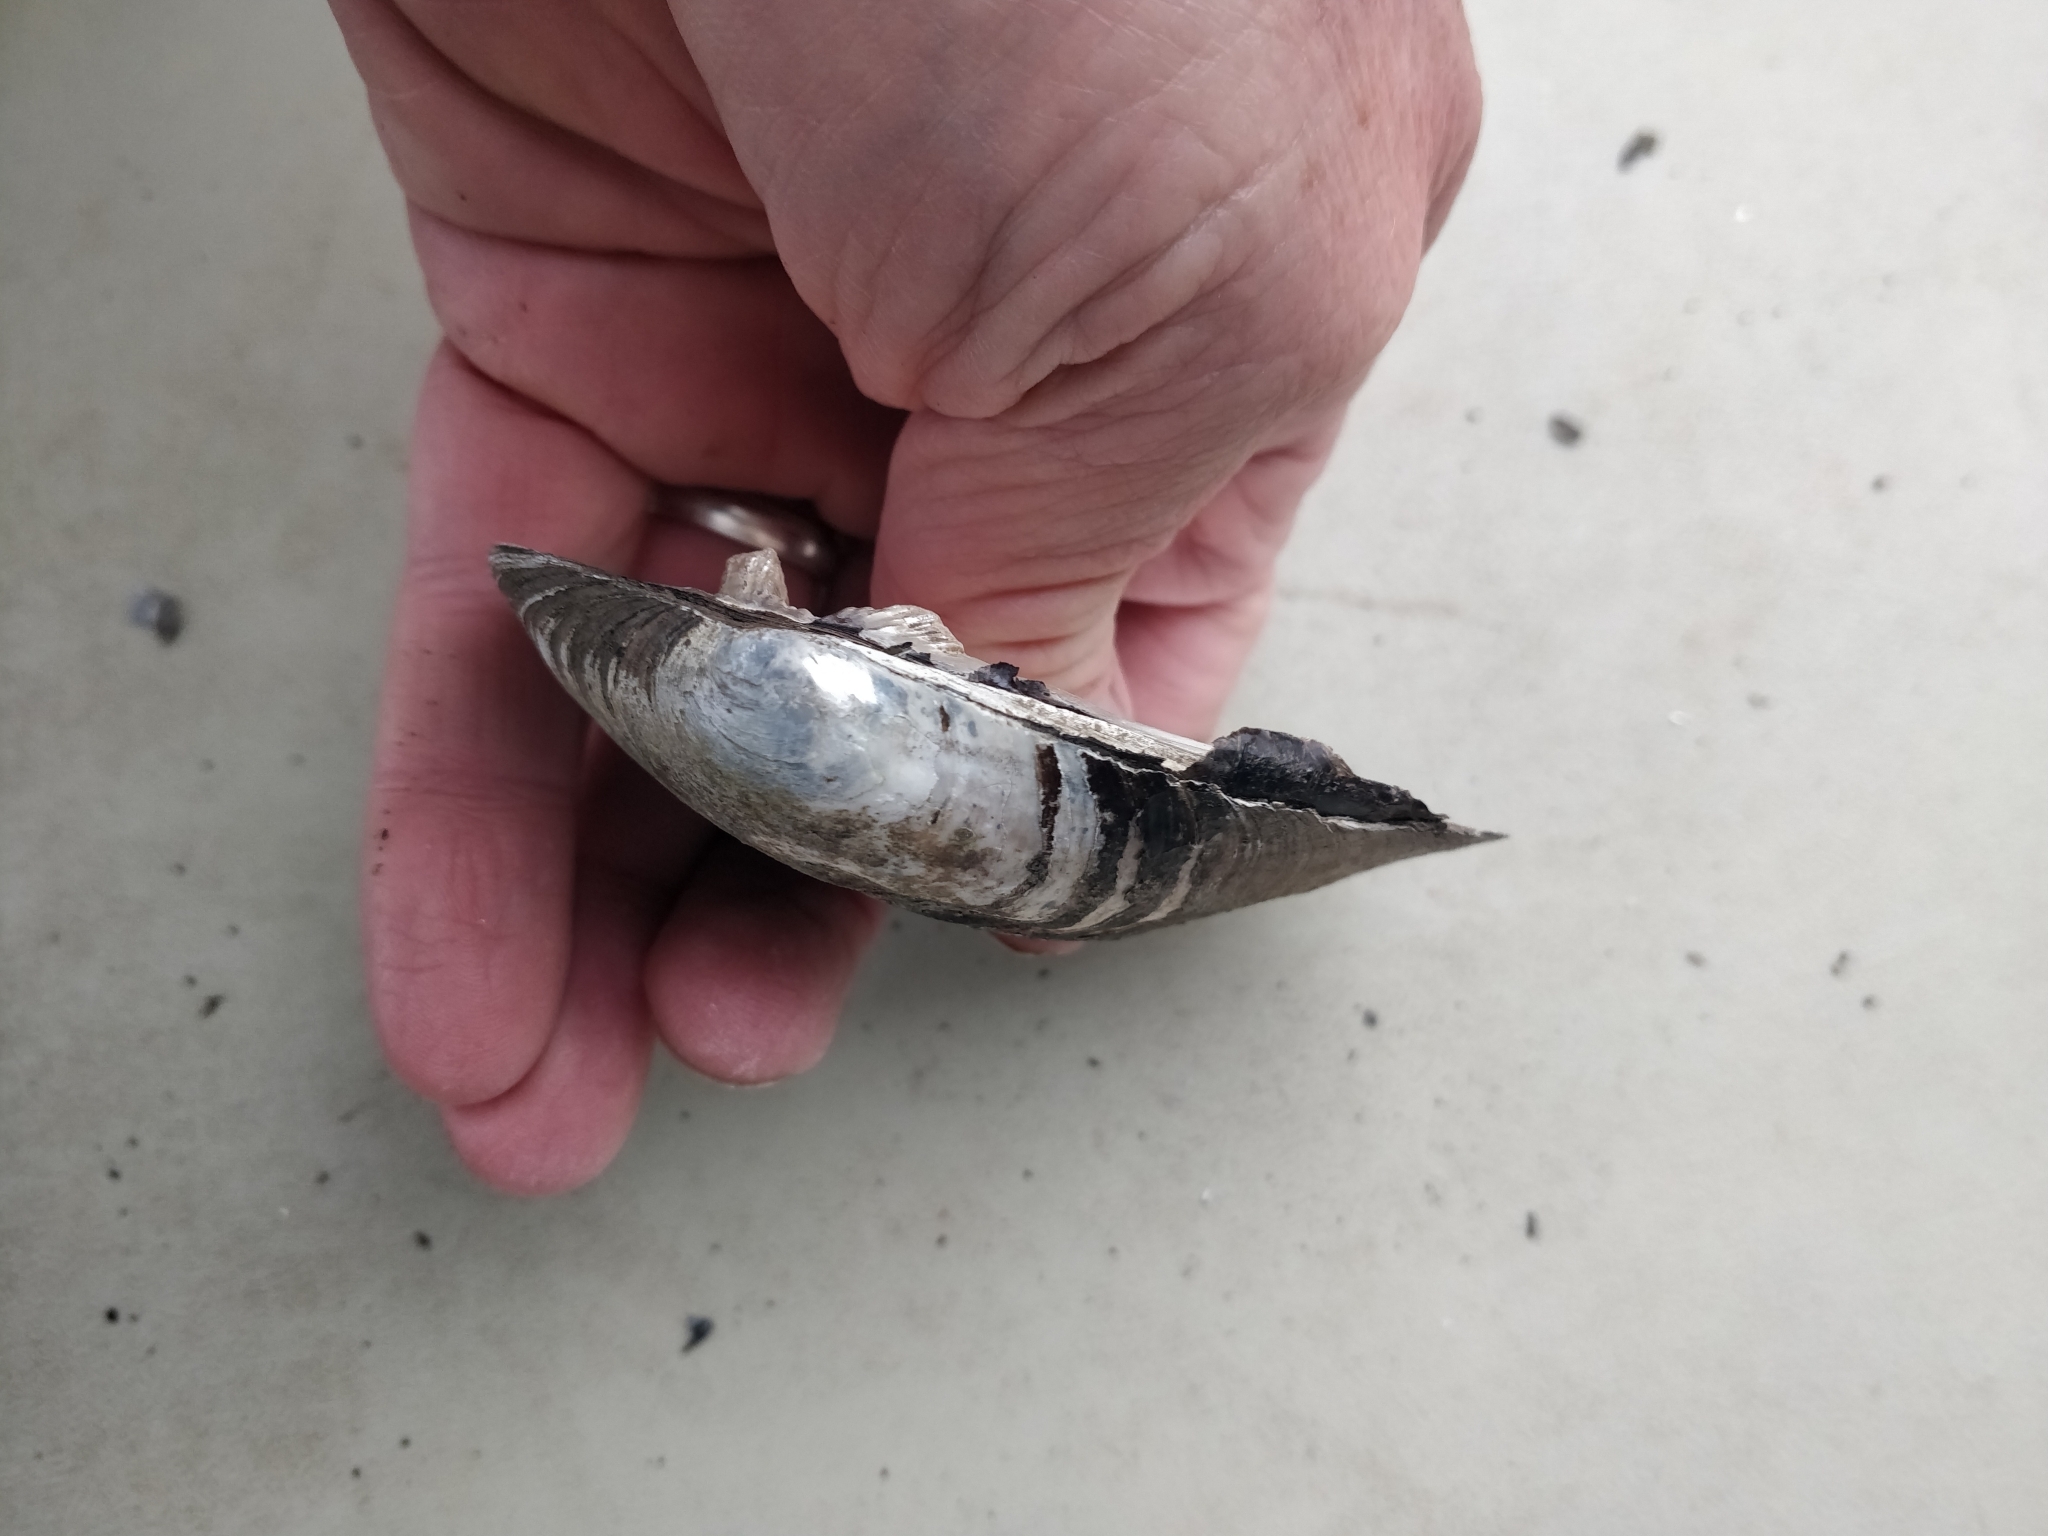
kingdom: Animalia
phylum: Mollusca
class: Bivalvia
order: Unionida
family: Unionidae
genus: Amblema
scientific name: Amblema plicata
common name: Threeridge
